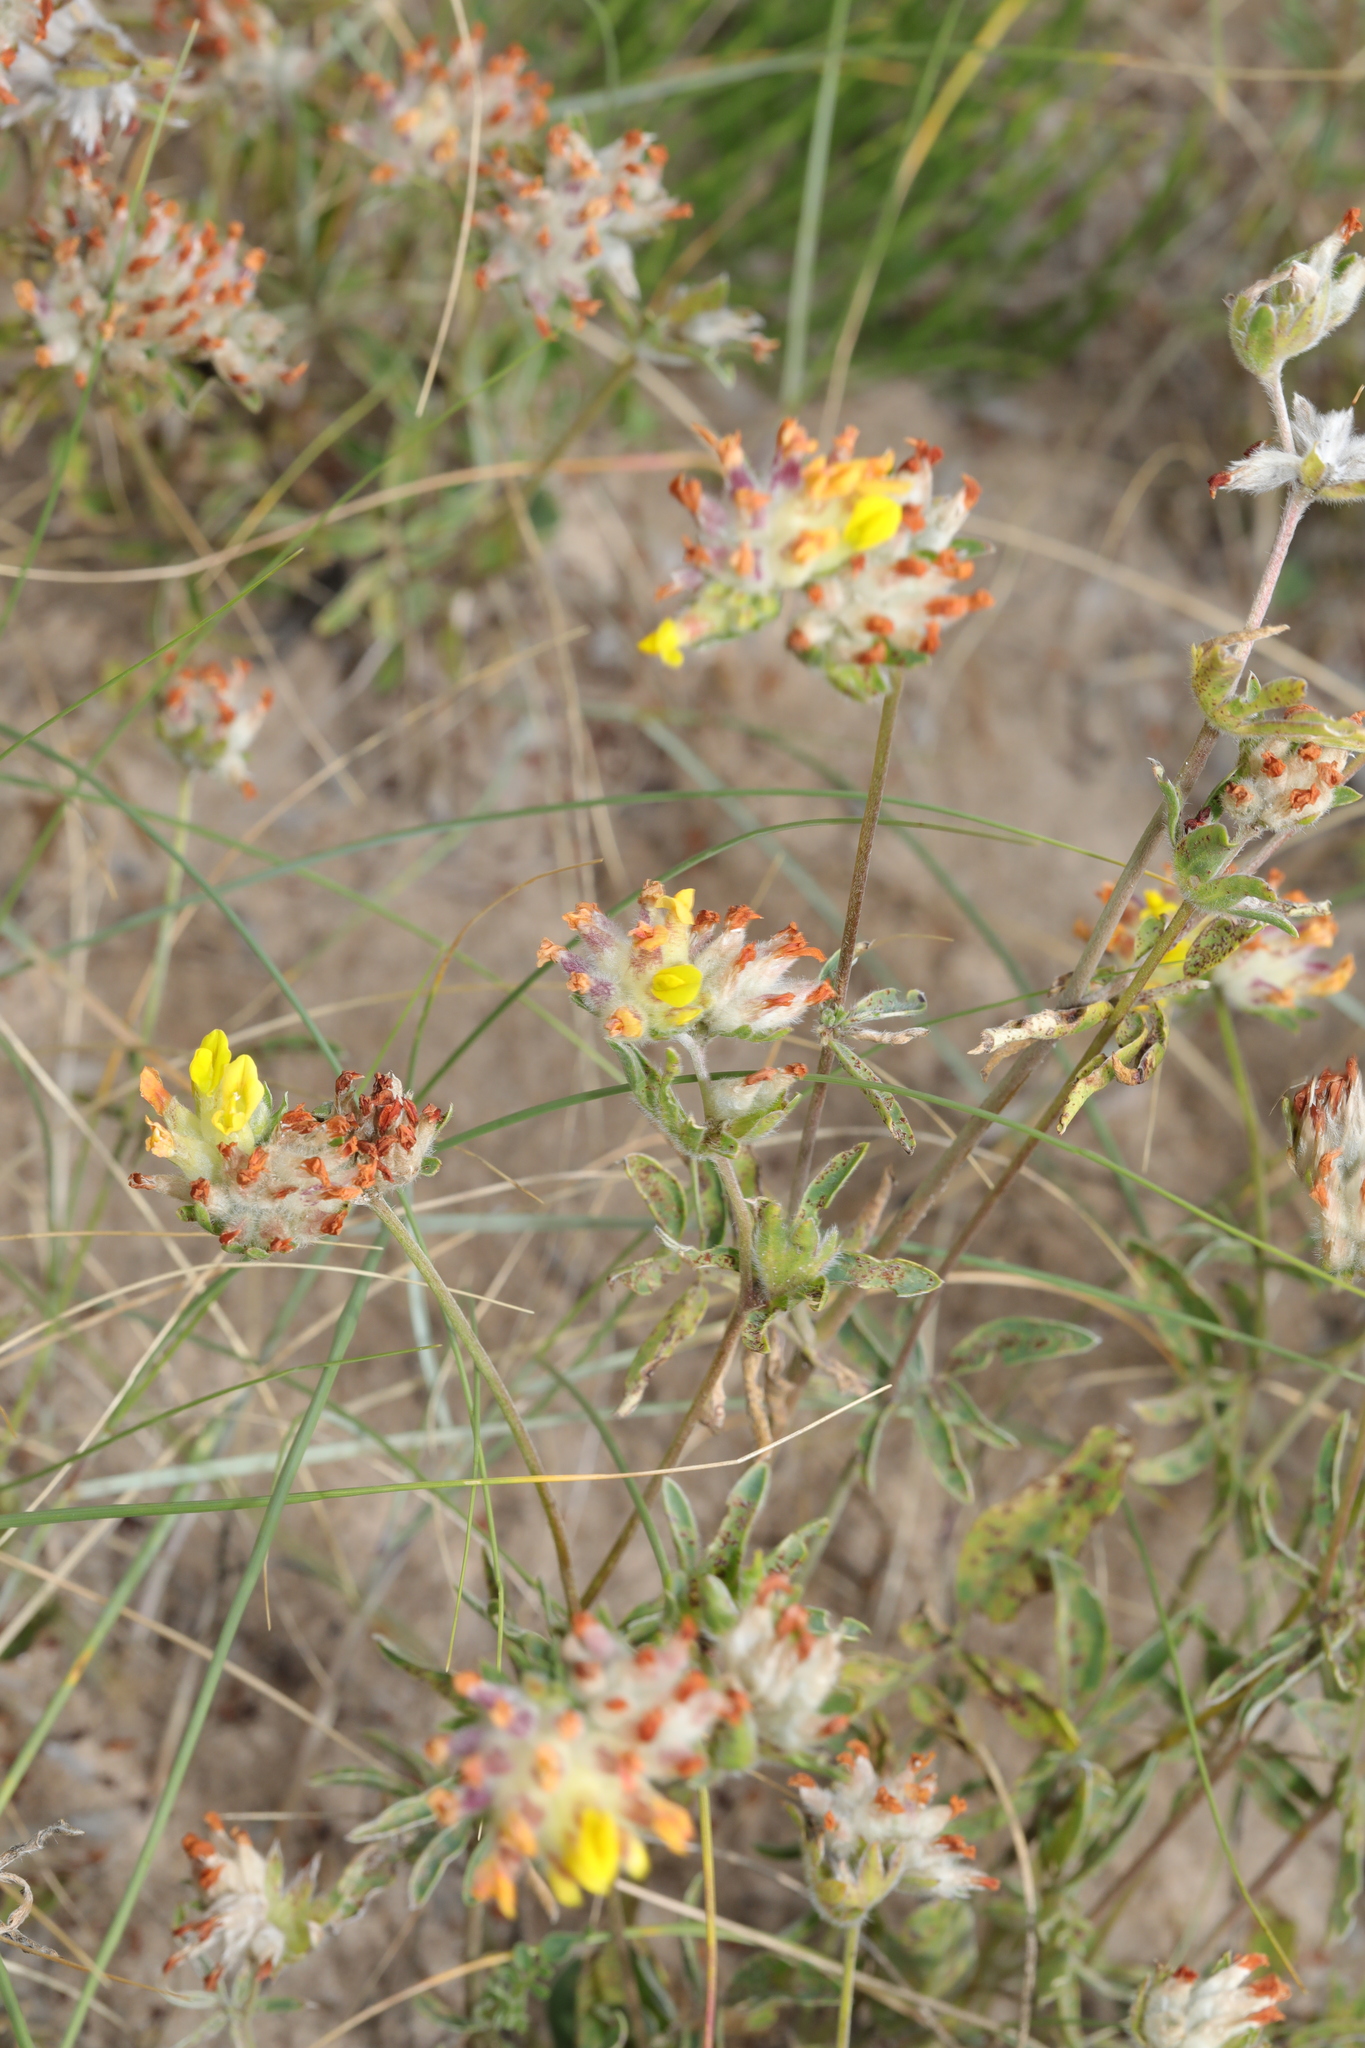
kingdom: Plantae
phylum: Tracheophyta
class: Magnoliopsida
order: Fabales
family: Fabaceae
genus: Anthyllis
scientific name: Anthyllis vulneraria
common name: Kidney vetch
